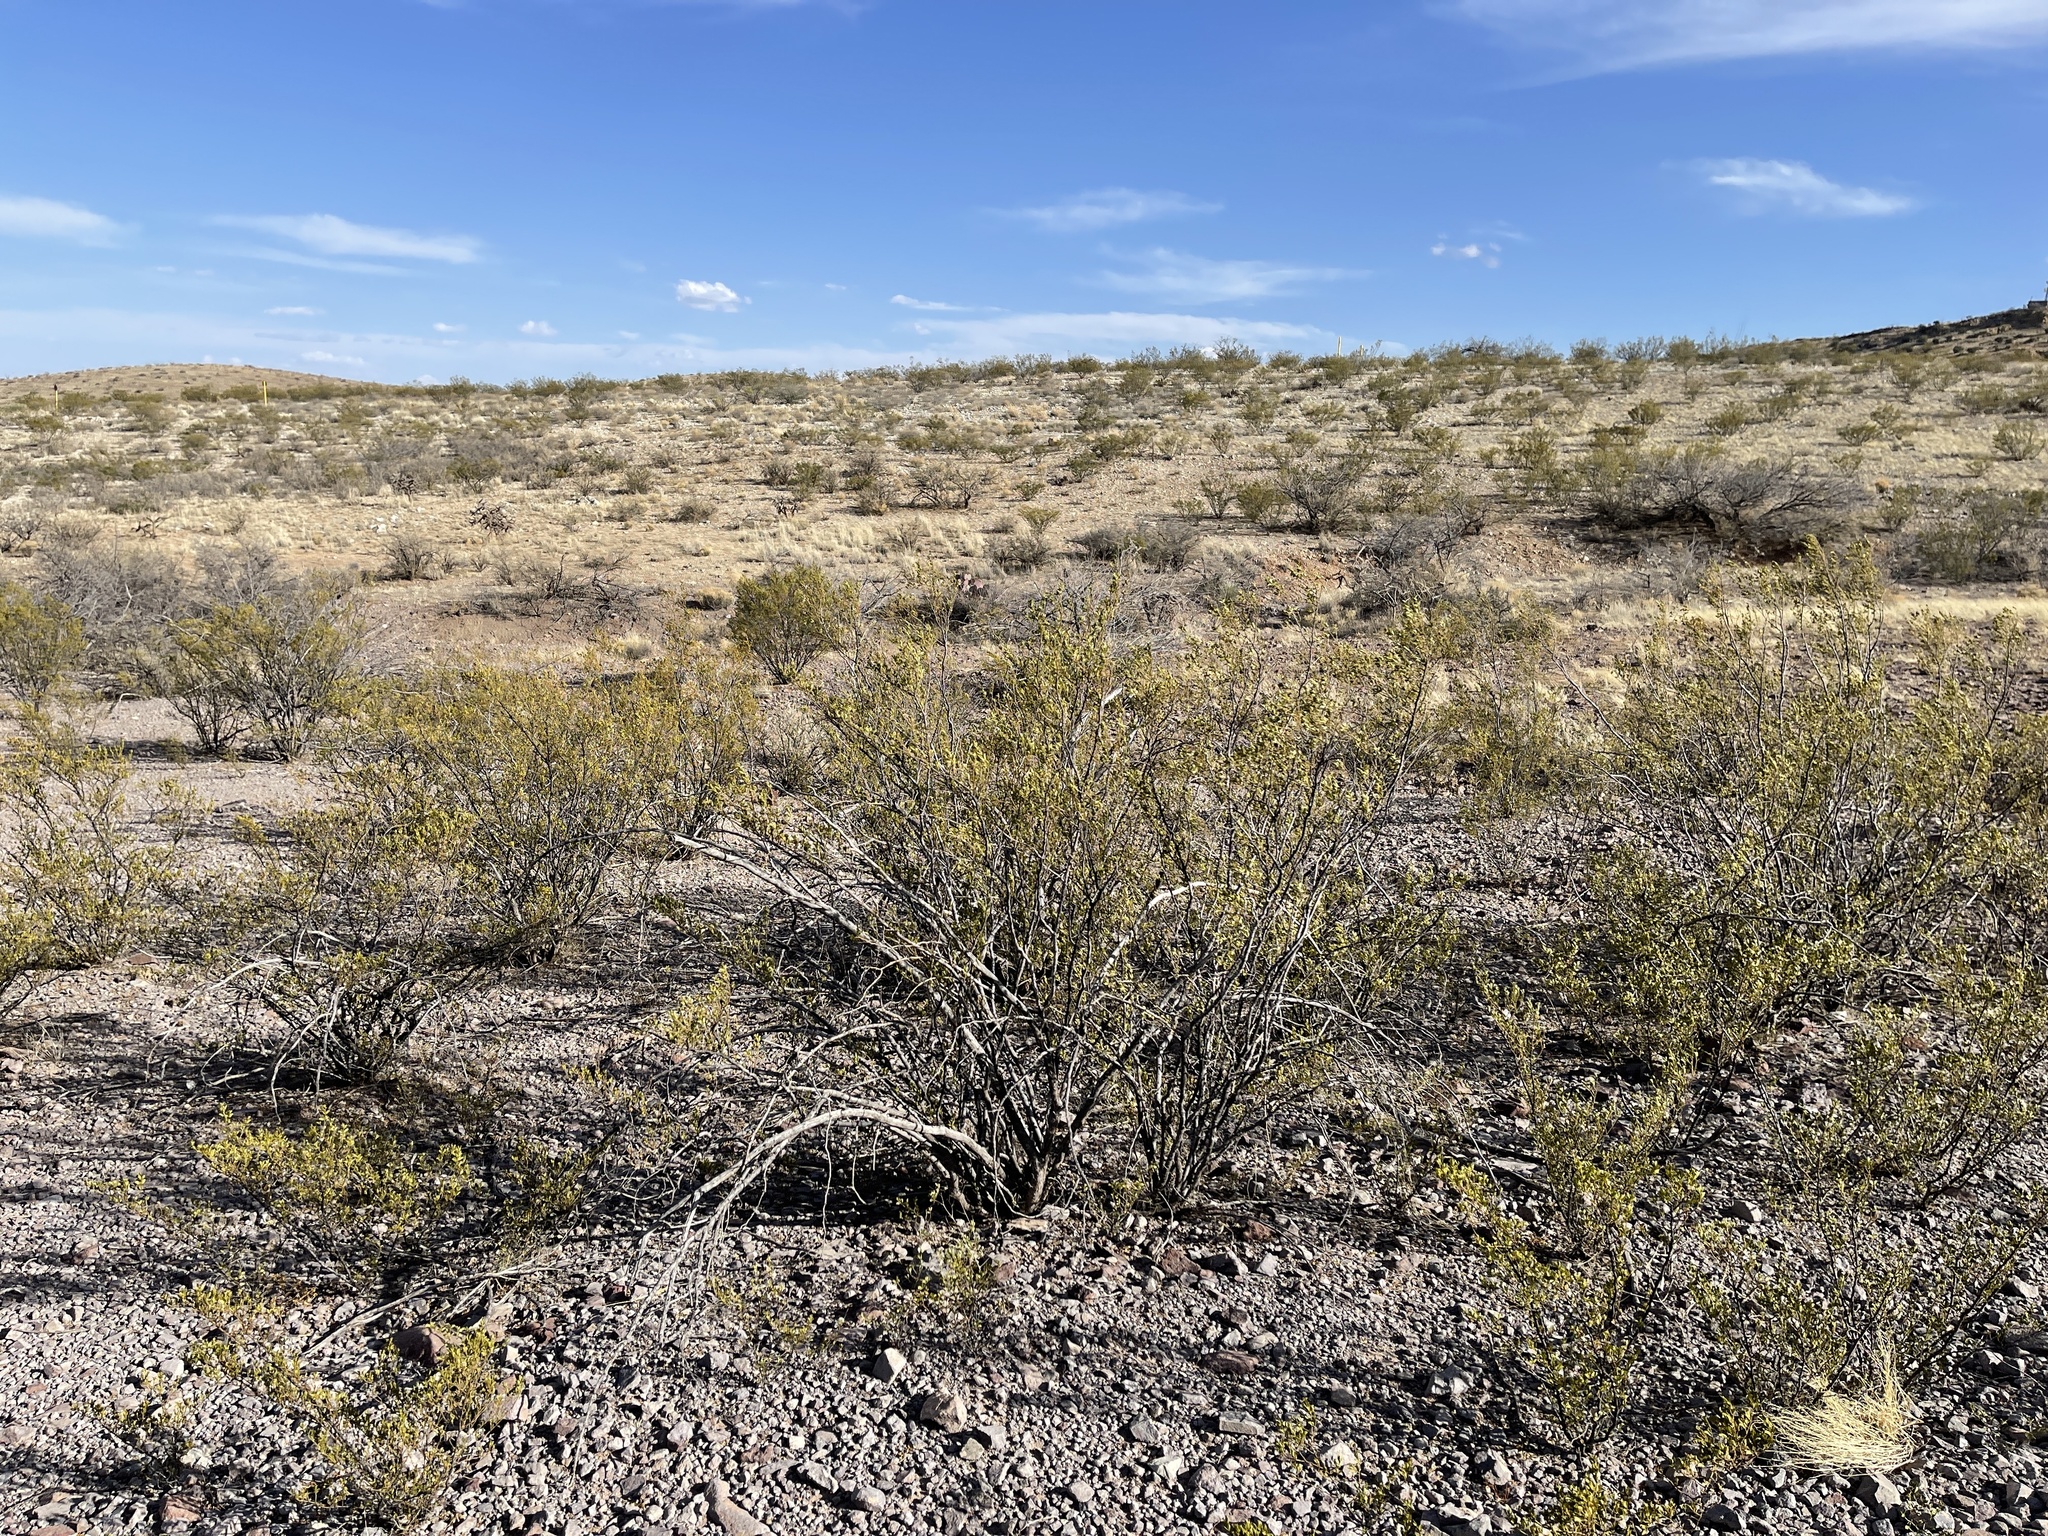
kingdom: Plantae
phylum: Tracheophyta
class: Magnoliopsida
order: Zygophyllales
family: Zygophyllaceae
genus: Larrea
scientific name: Larrea tridentata
